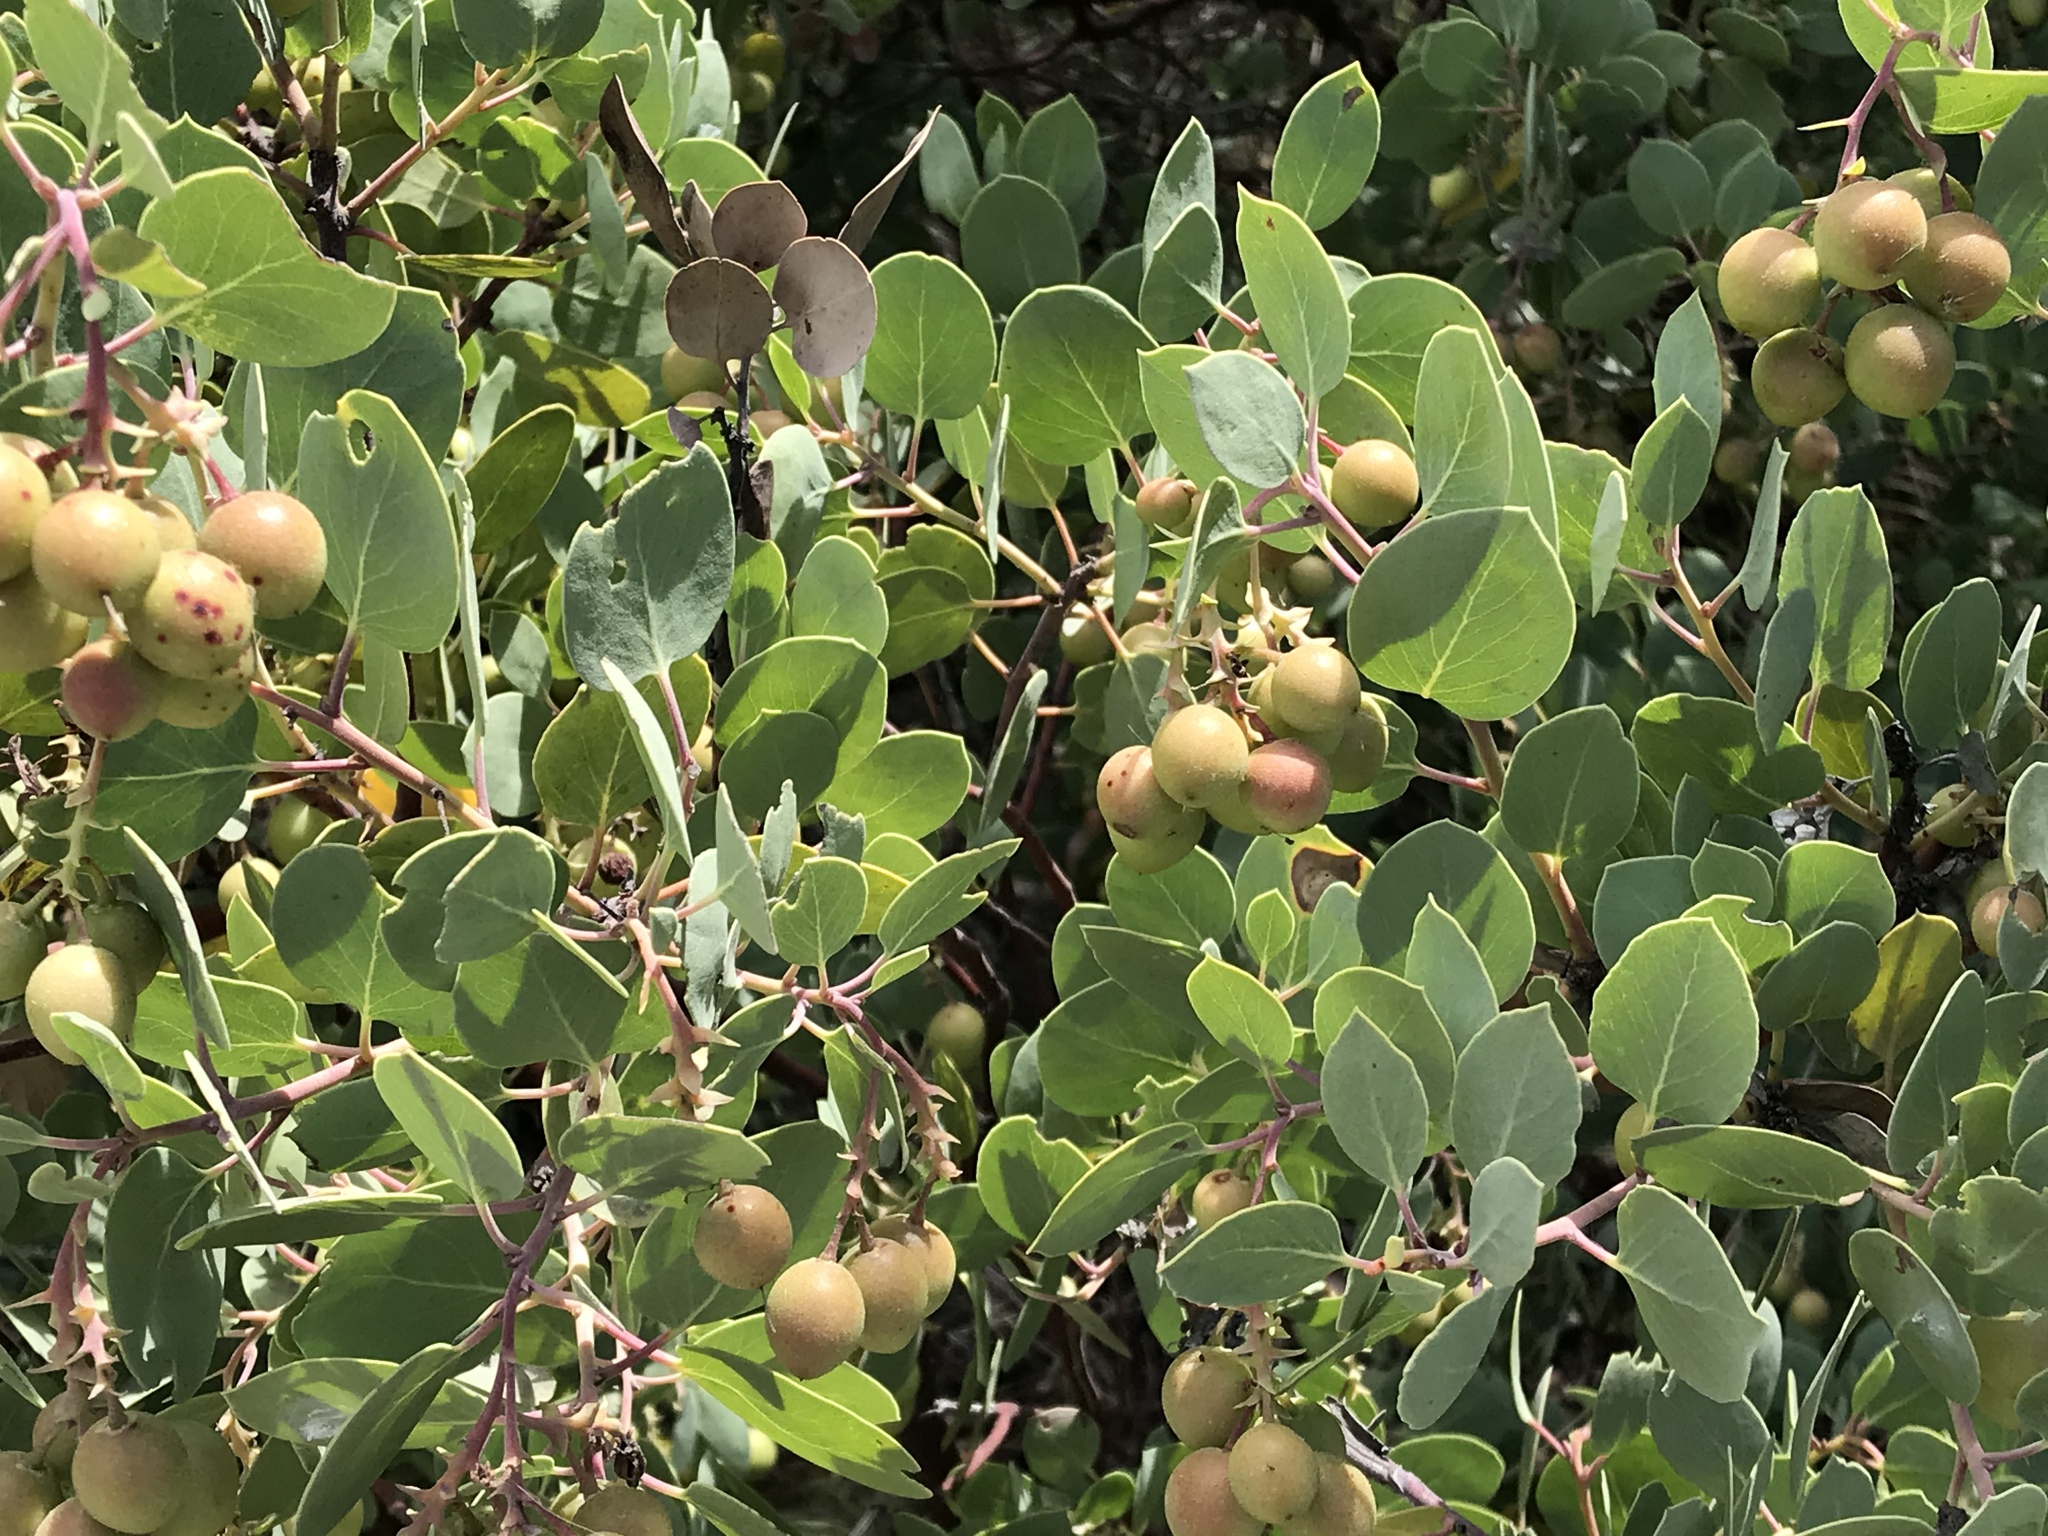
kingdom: Plantae
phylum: Tracheophyta
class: Magnoliopsida
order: Ericales
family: Ericaceae
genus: Arctostaphylos
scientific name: Arctostaphylos glauca
